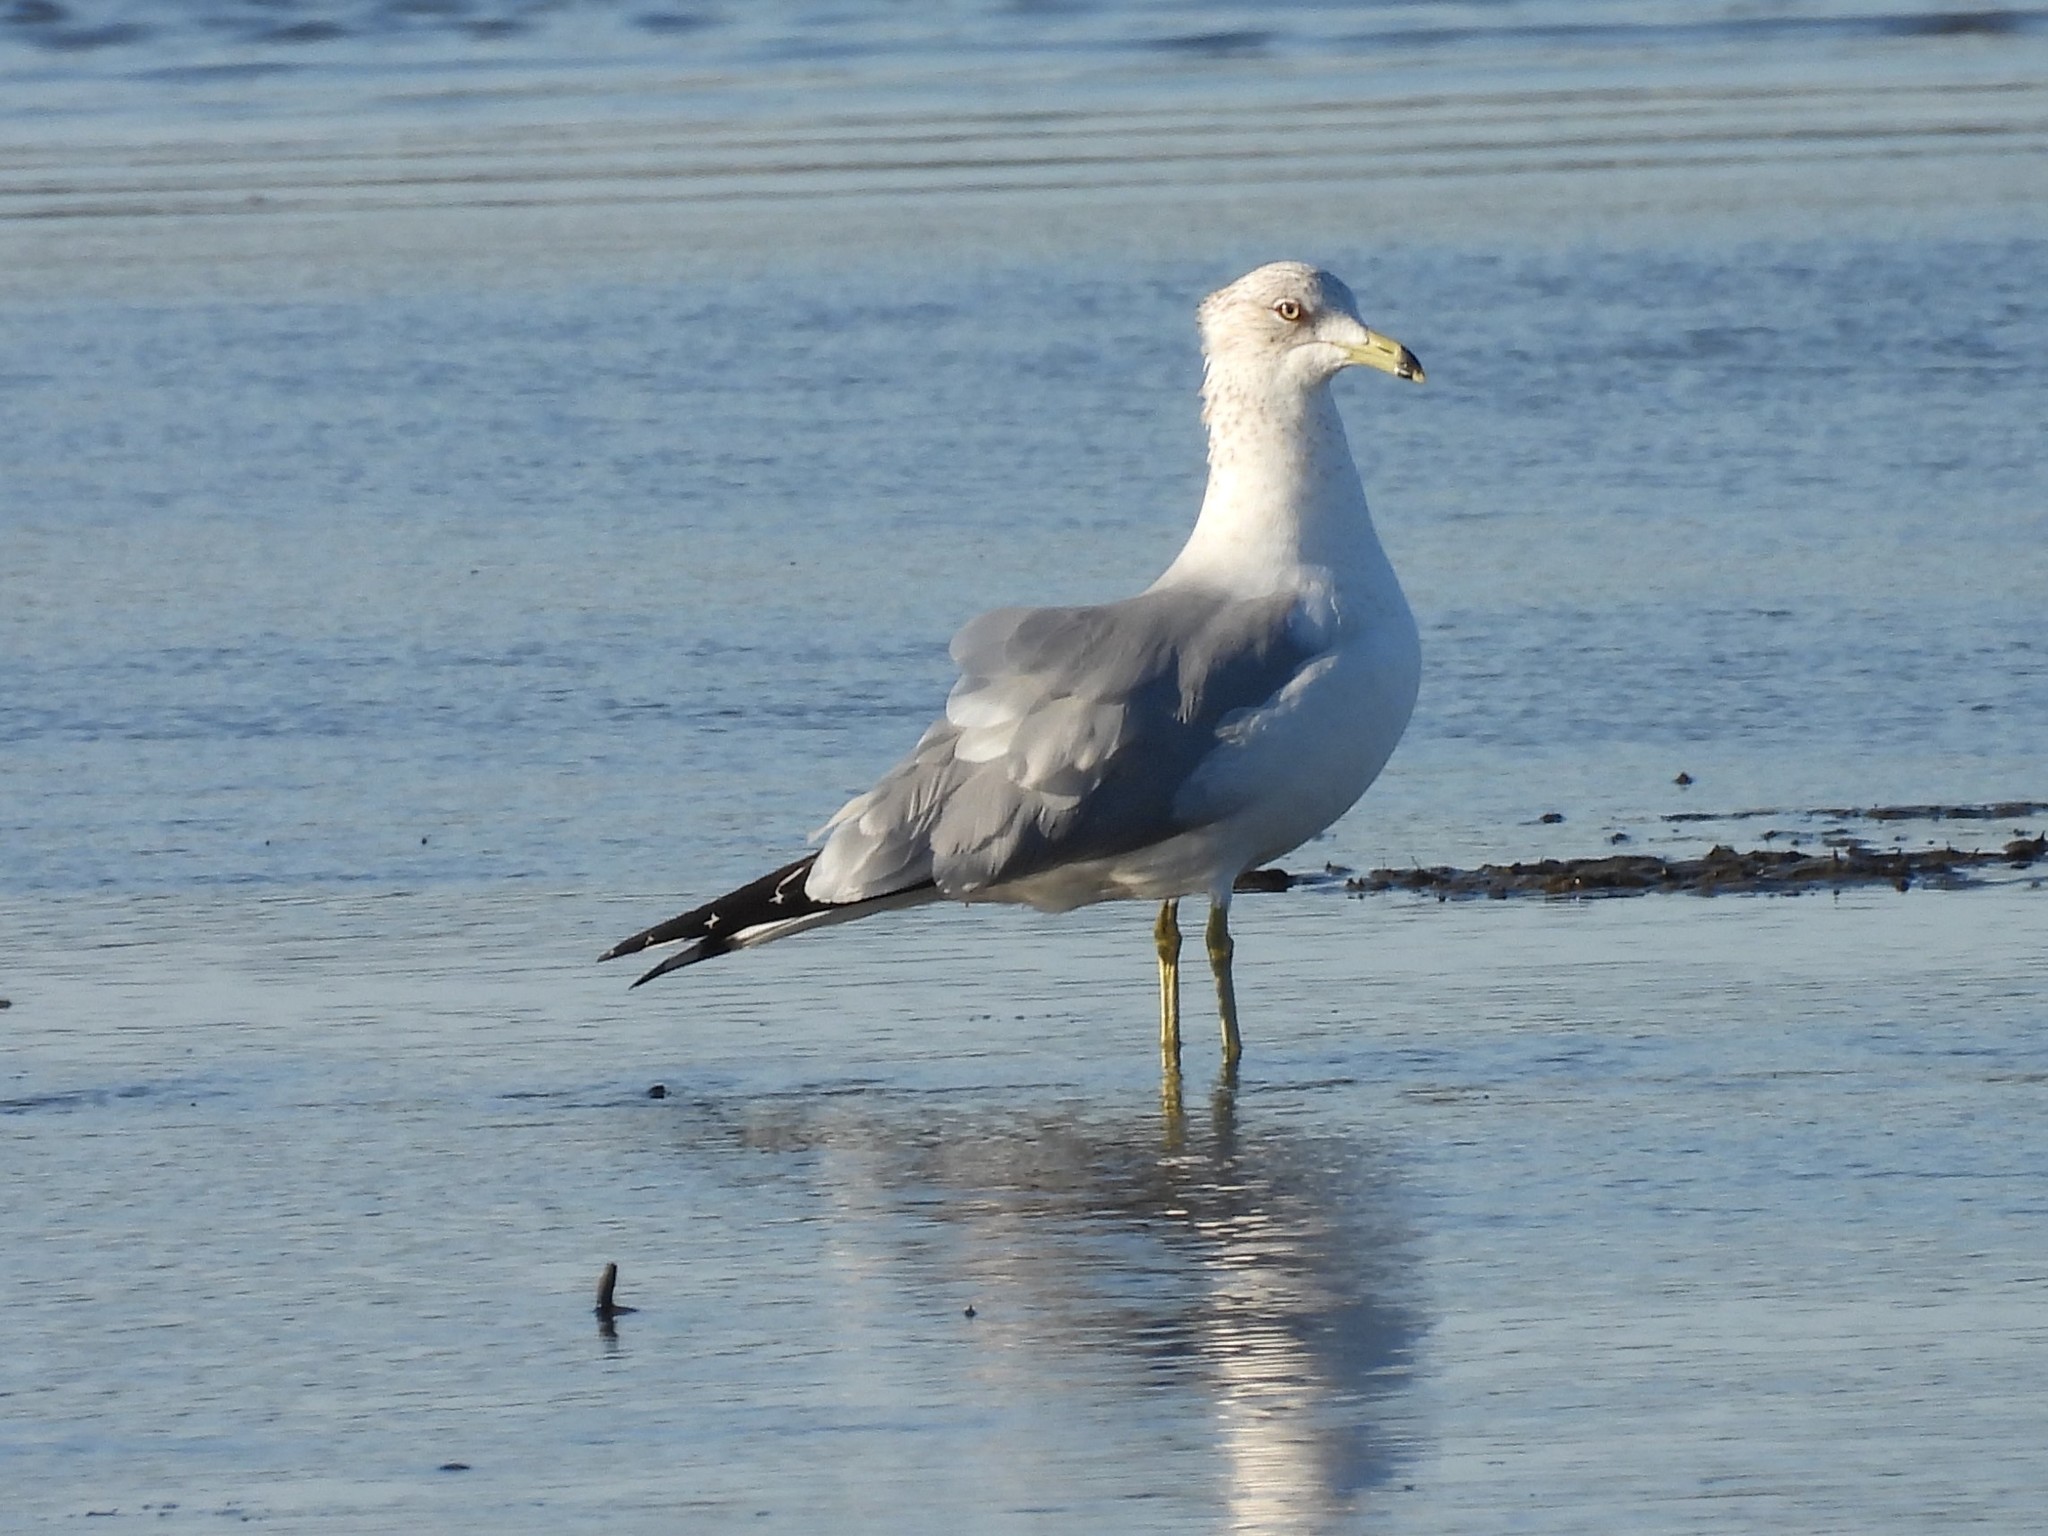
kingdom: Animalia
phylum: Chordata
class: Aves
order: Charadriiformes
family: Laridae
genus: Larus
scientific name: Larus delawarensis
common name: Ring-billed gull
